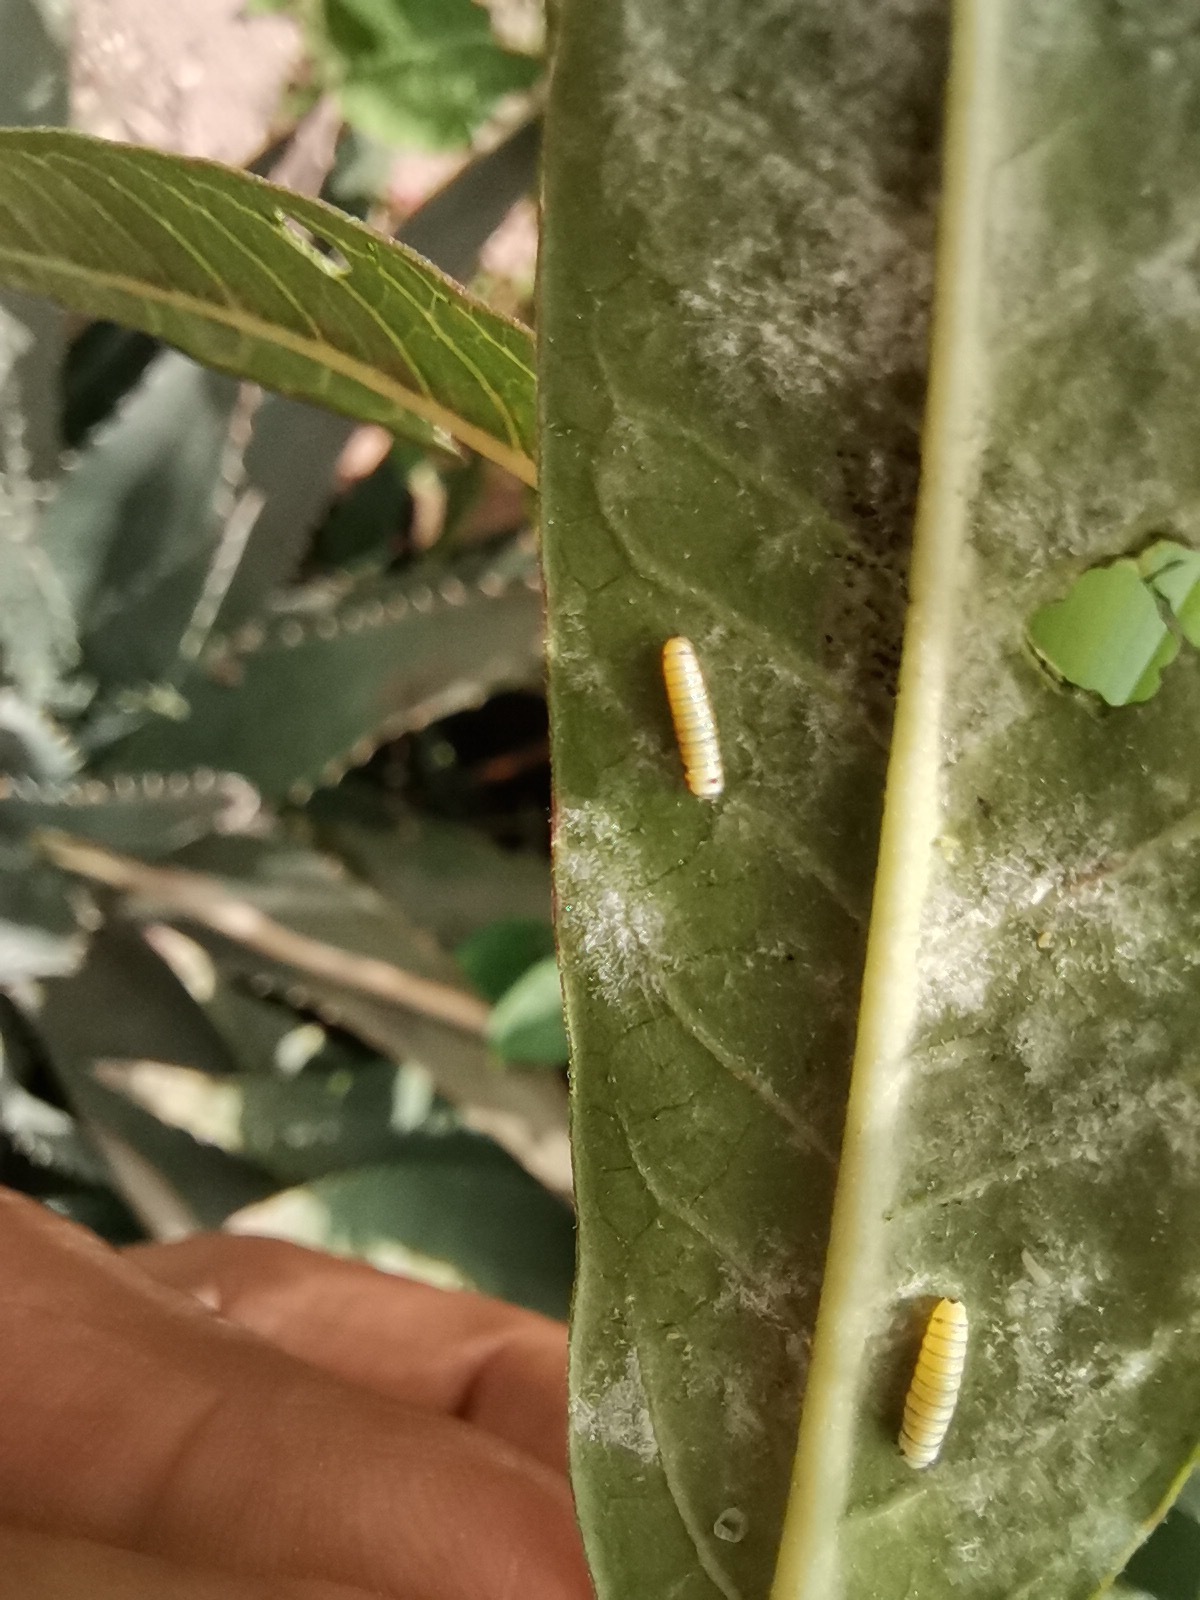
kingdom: Animalia
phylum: Arthropoda
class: Insecta
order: Lepidoptera
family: Nymphalidae
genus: Danaus
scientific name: Danaus plexippus
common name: Monarch
